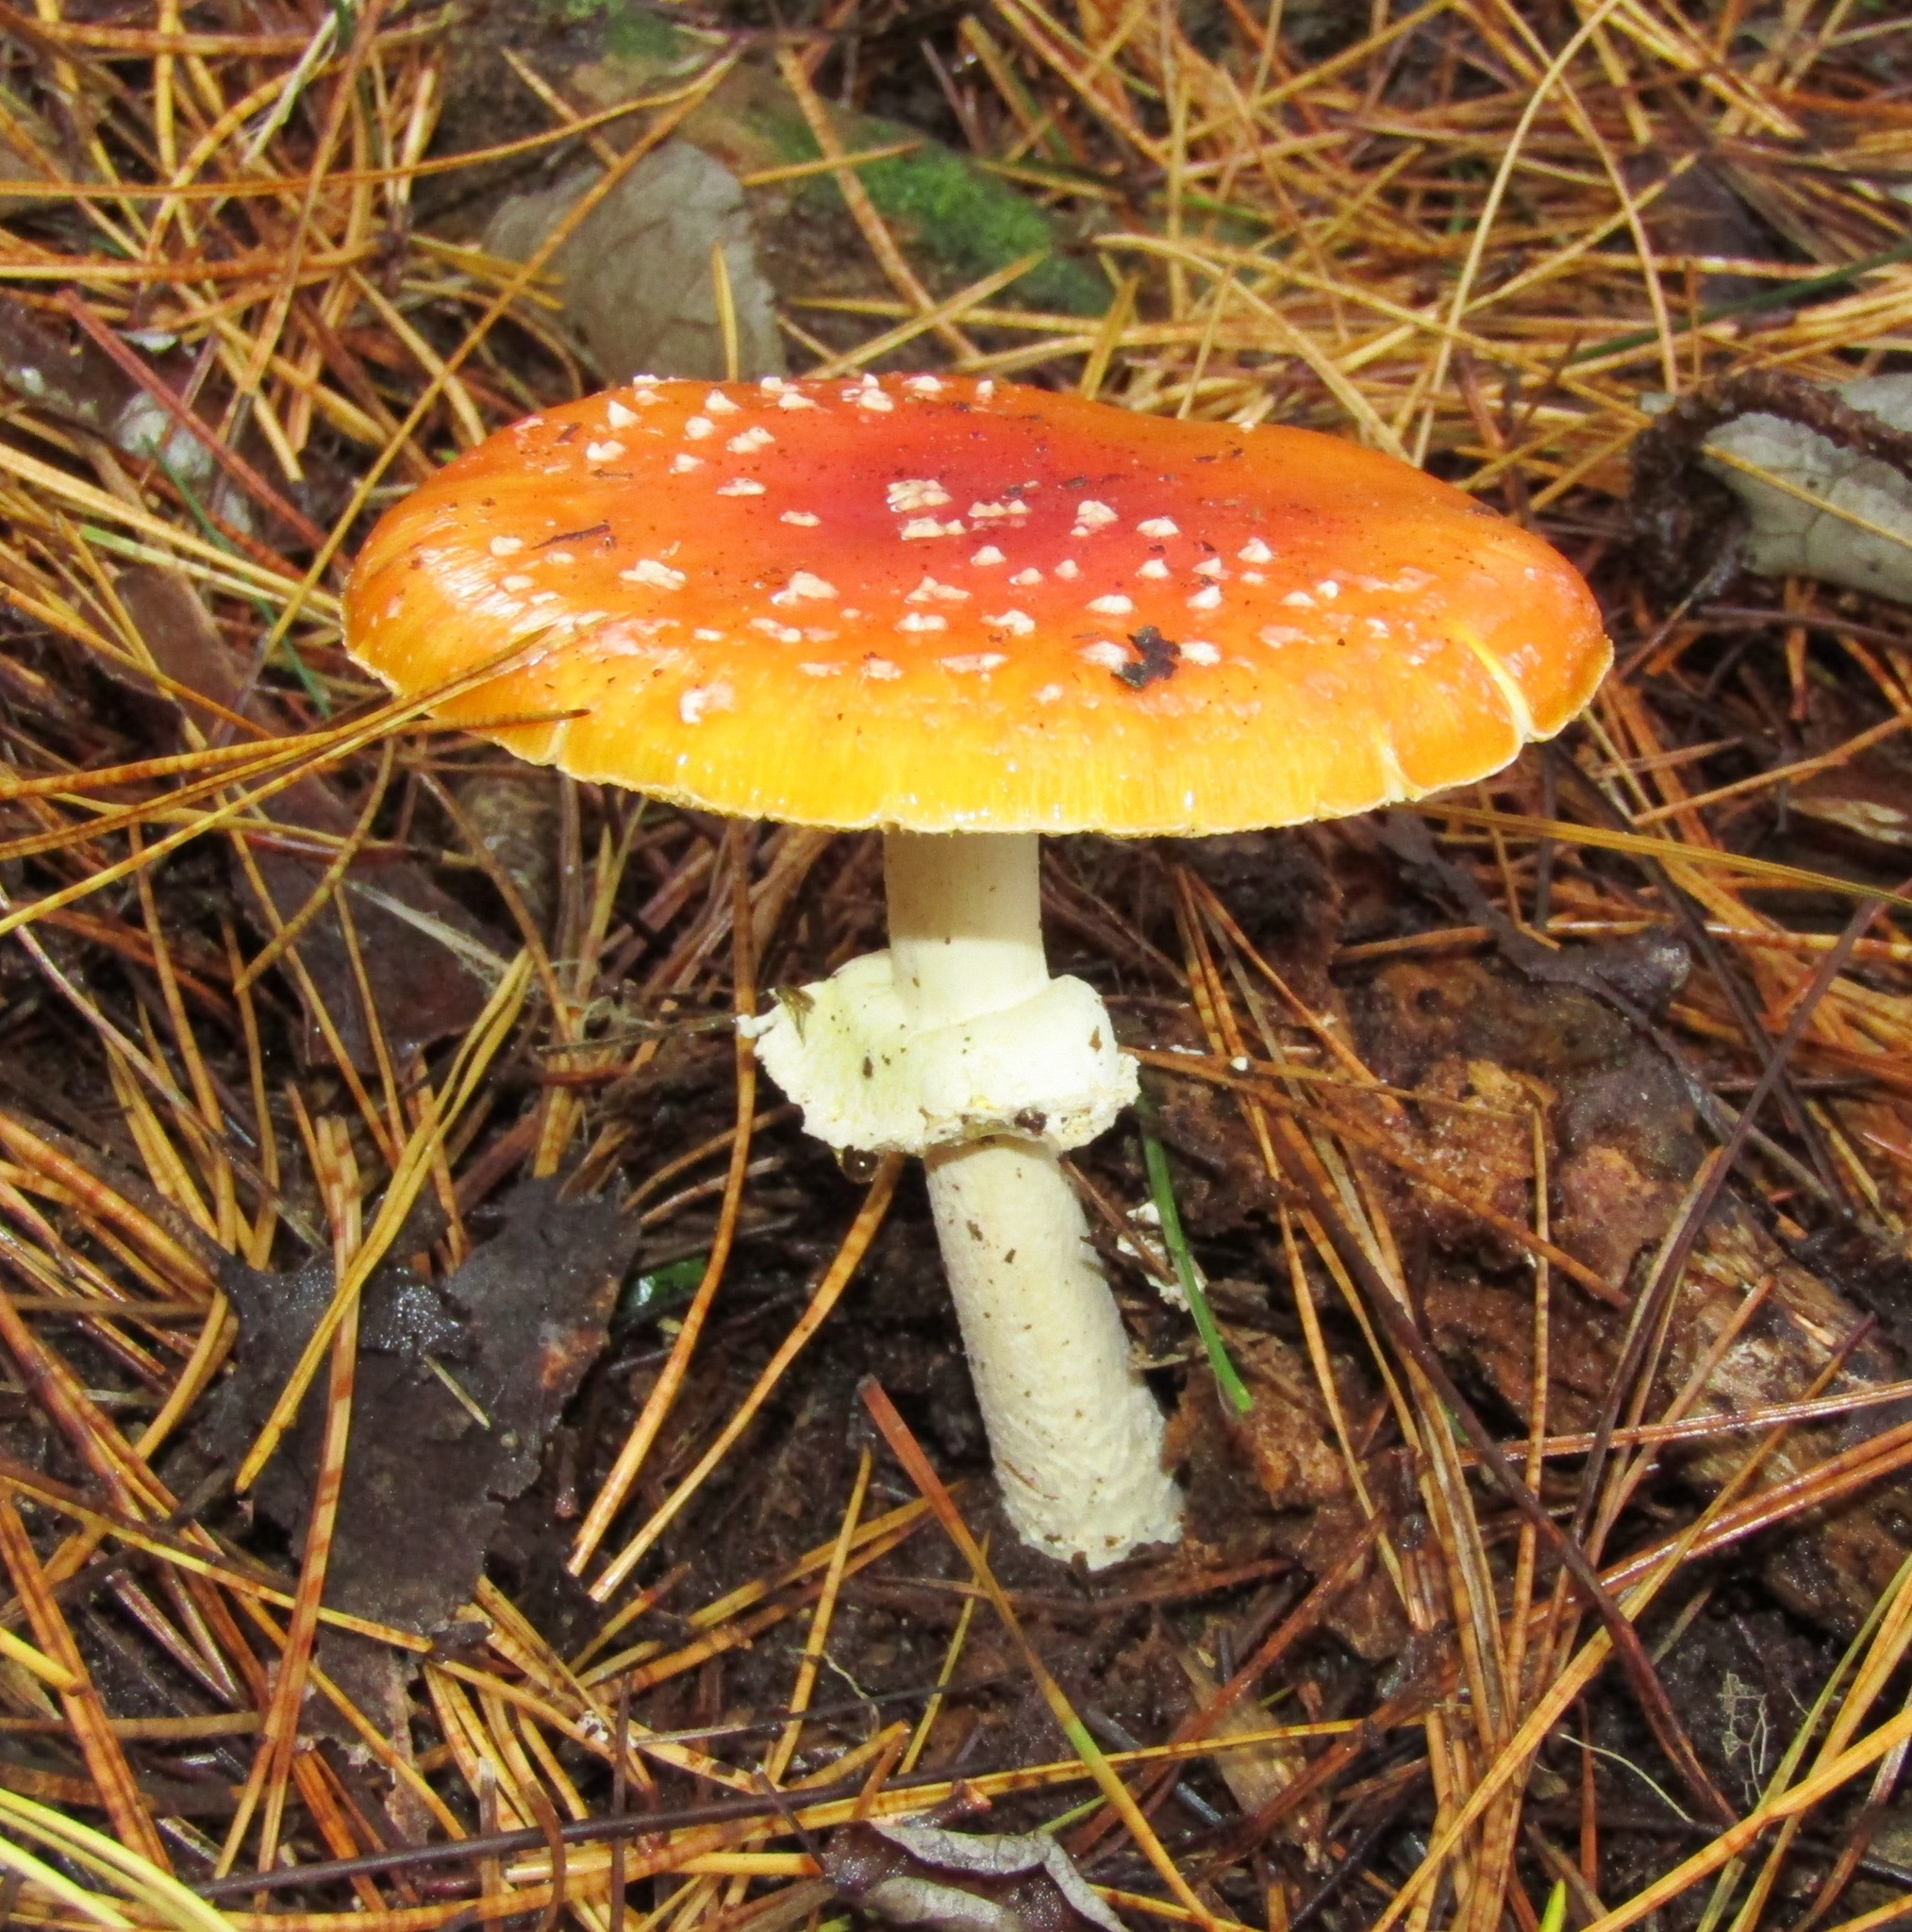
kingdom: Fungi
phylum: Basidiomycota
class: Agaricomycetes
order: Agaricales
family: Amanitaceae
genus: Amanita
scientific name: Amanita muscaria
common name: Fly agaric
